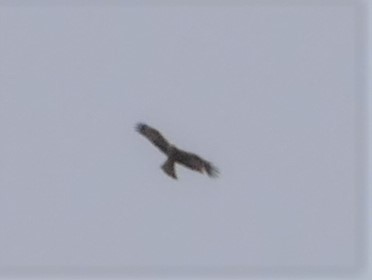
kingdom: Animalia
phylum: Chordata
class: Aves
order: Accipitriformes
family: Accipitridae
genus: Milvus
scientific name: Milvus migrans
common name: Black kite
